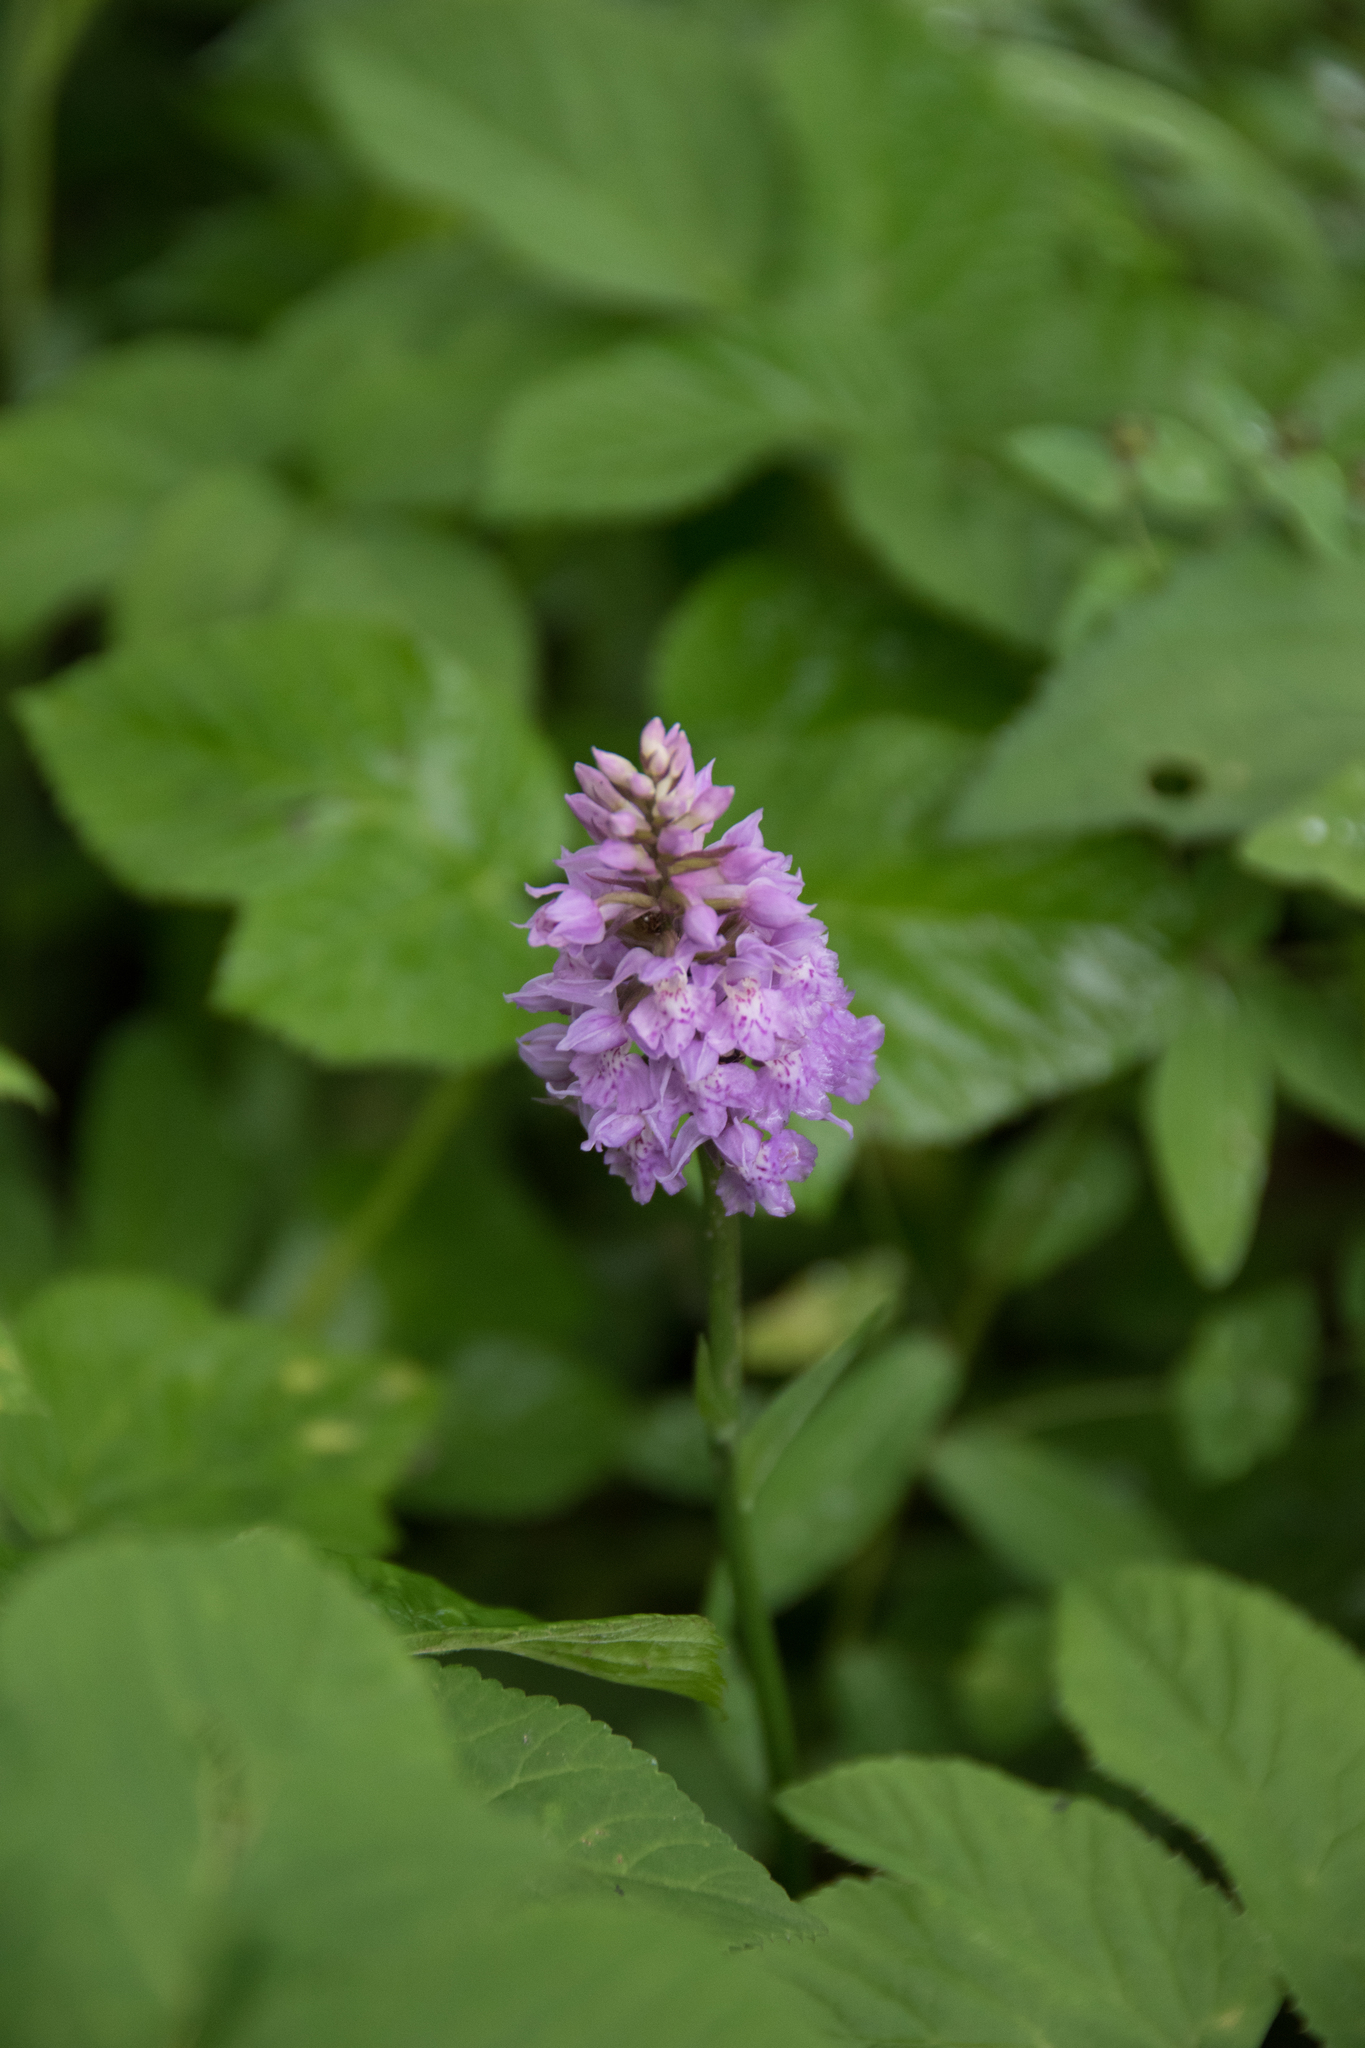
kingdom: Plantae
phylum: Tracheophyta
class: Liliopsida
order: Asparagales
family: Orchidaceae
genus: Dactylorhiza
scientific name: Dactylorhiza maculata
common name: Heath spotted-orchid
